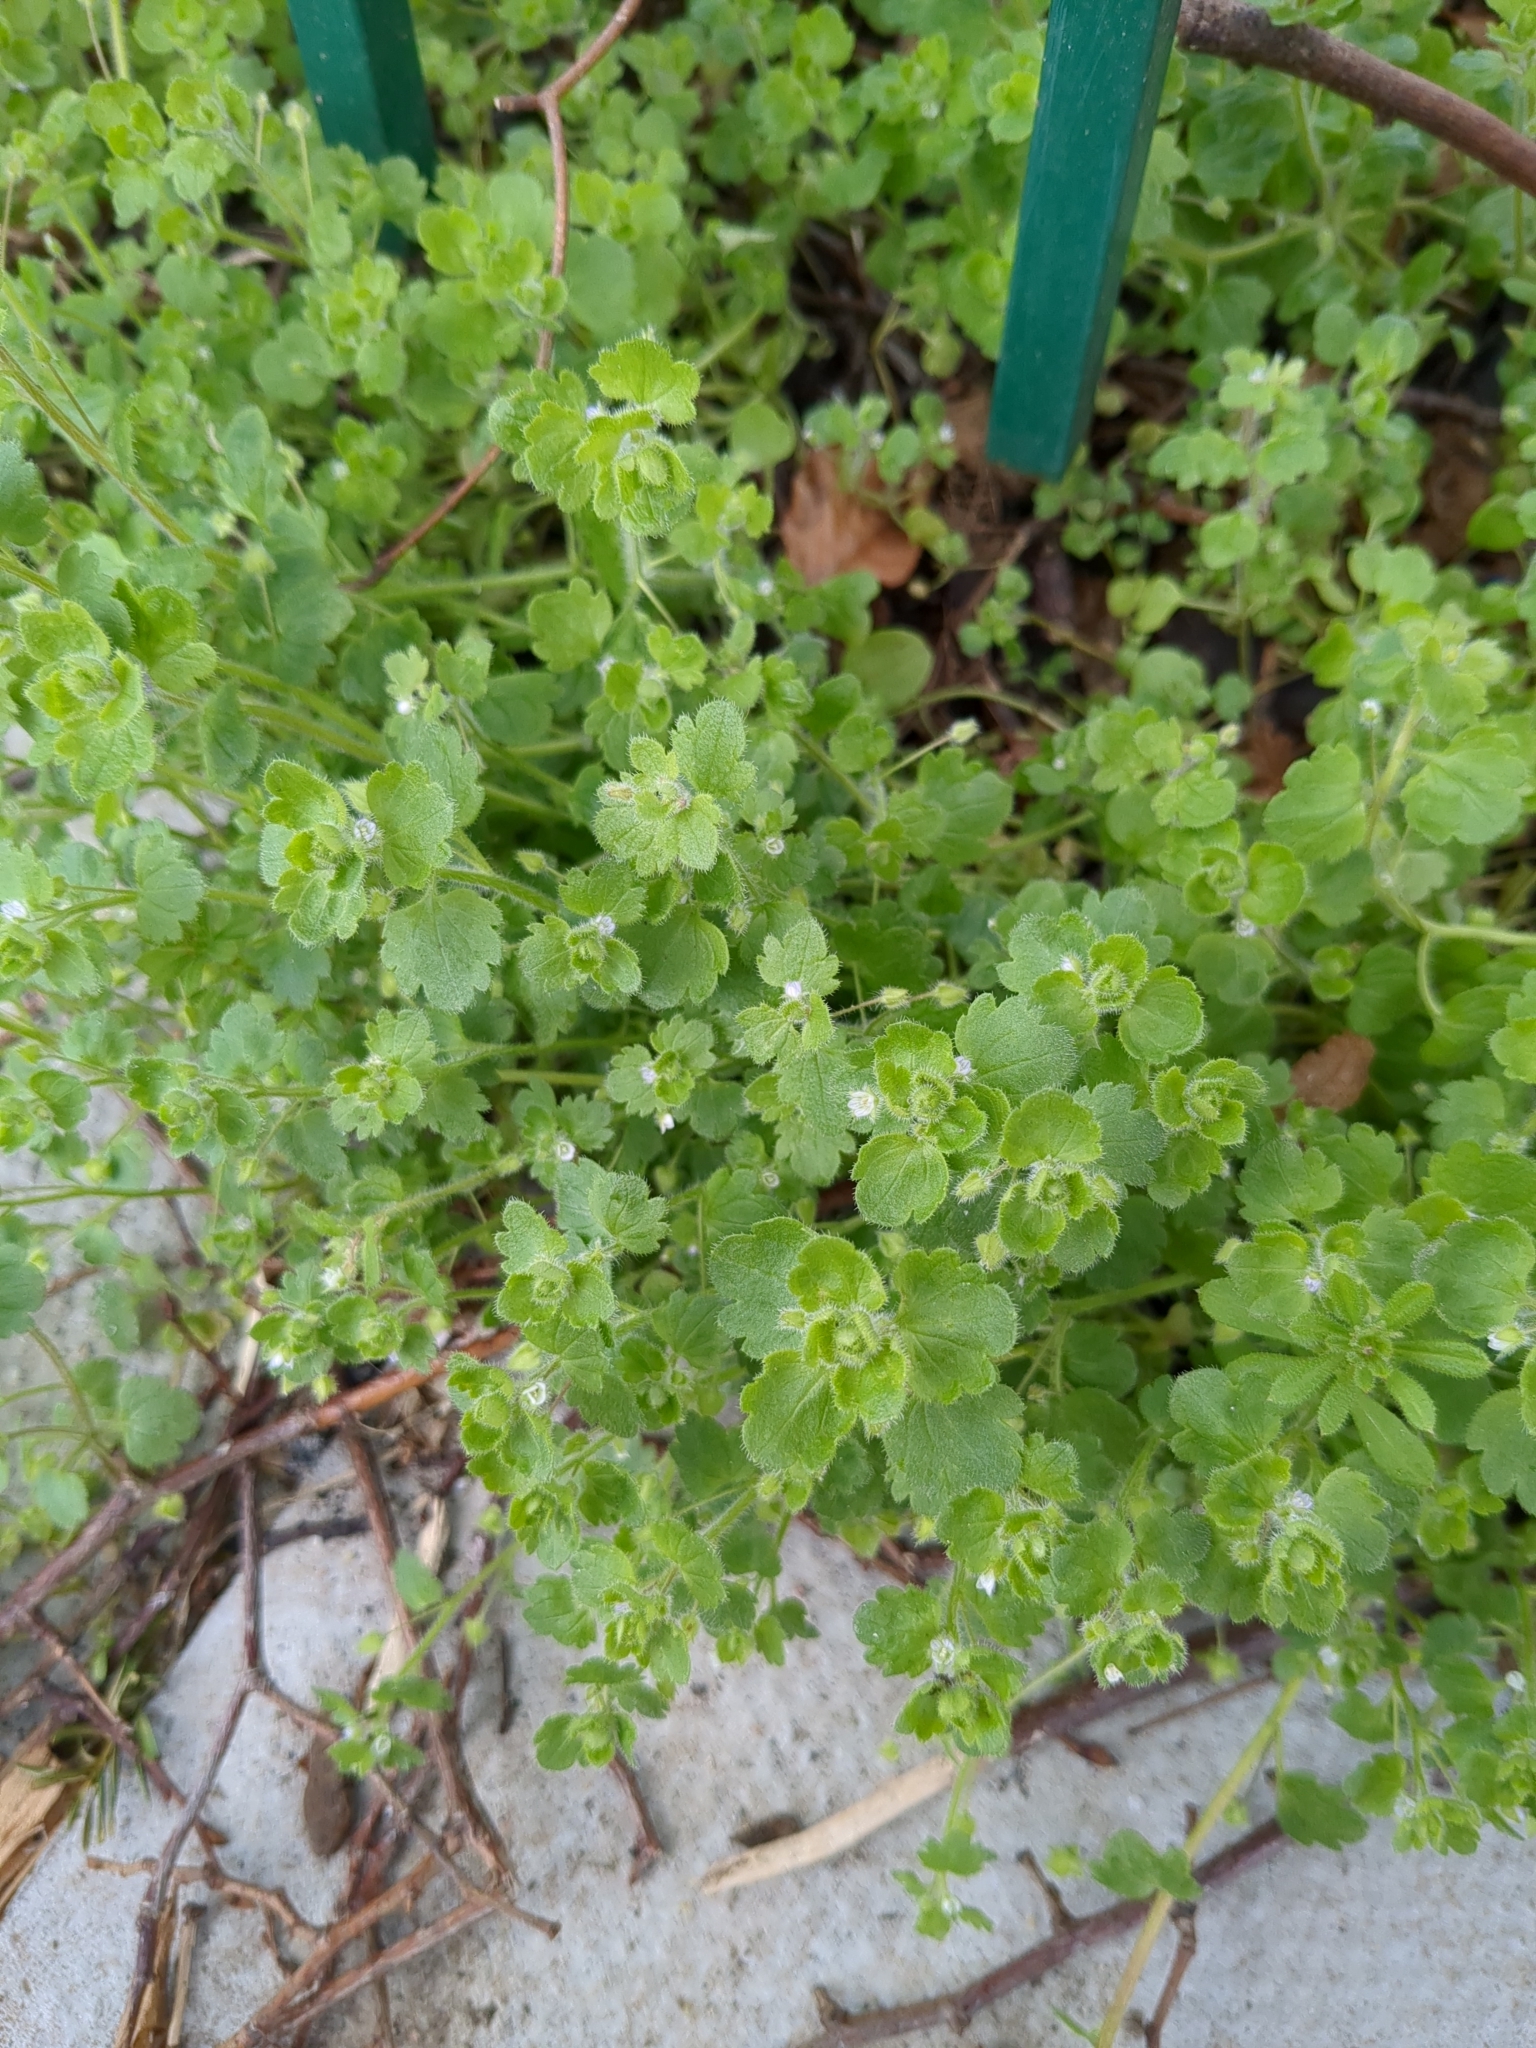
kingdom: Plantae
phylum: Tracheophyta
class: Magnoliopsida
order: Lamiales
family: Plantaginaceae
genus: Veronica
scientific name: Veronica sublobata
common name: False ivy-leaved speedwell
